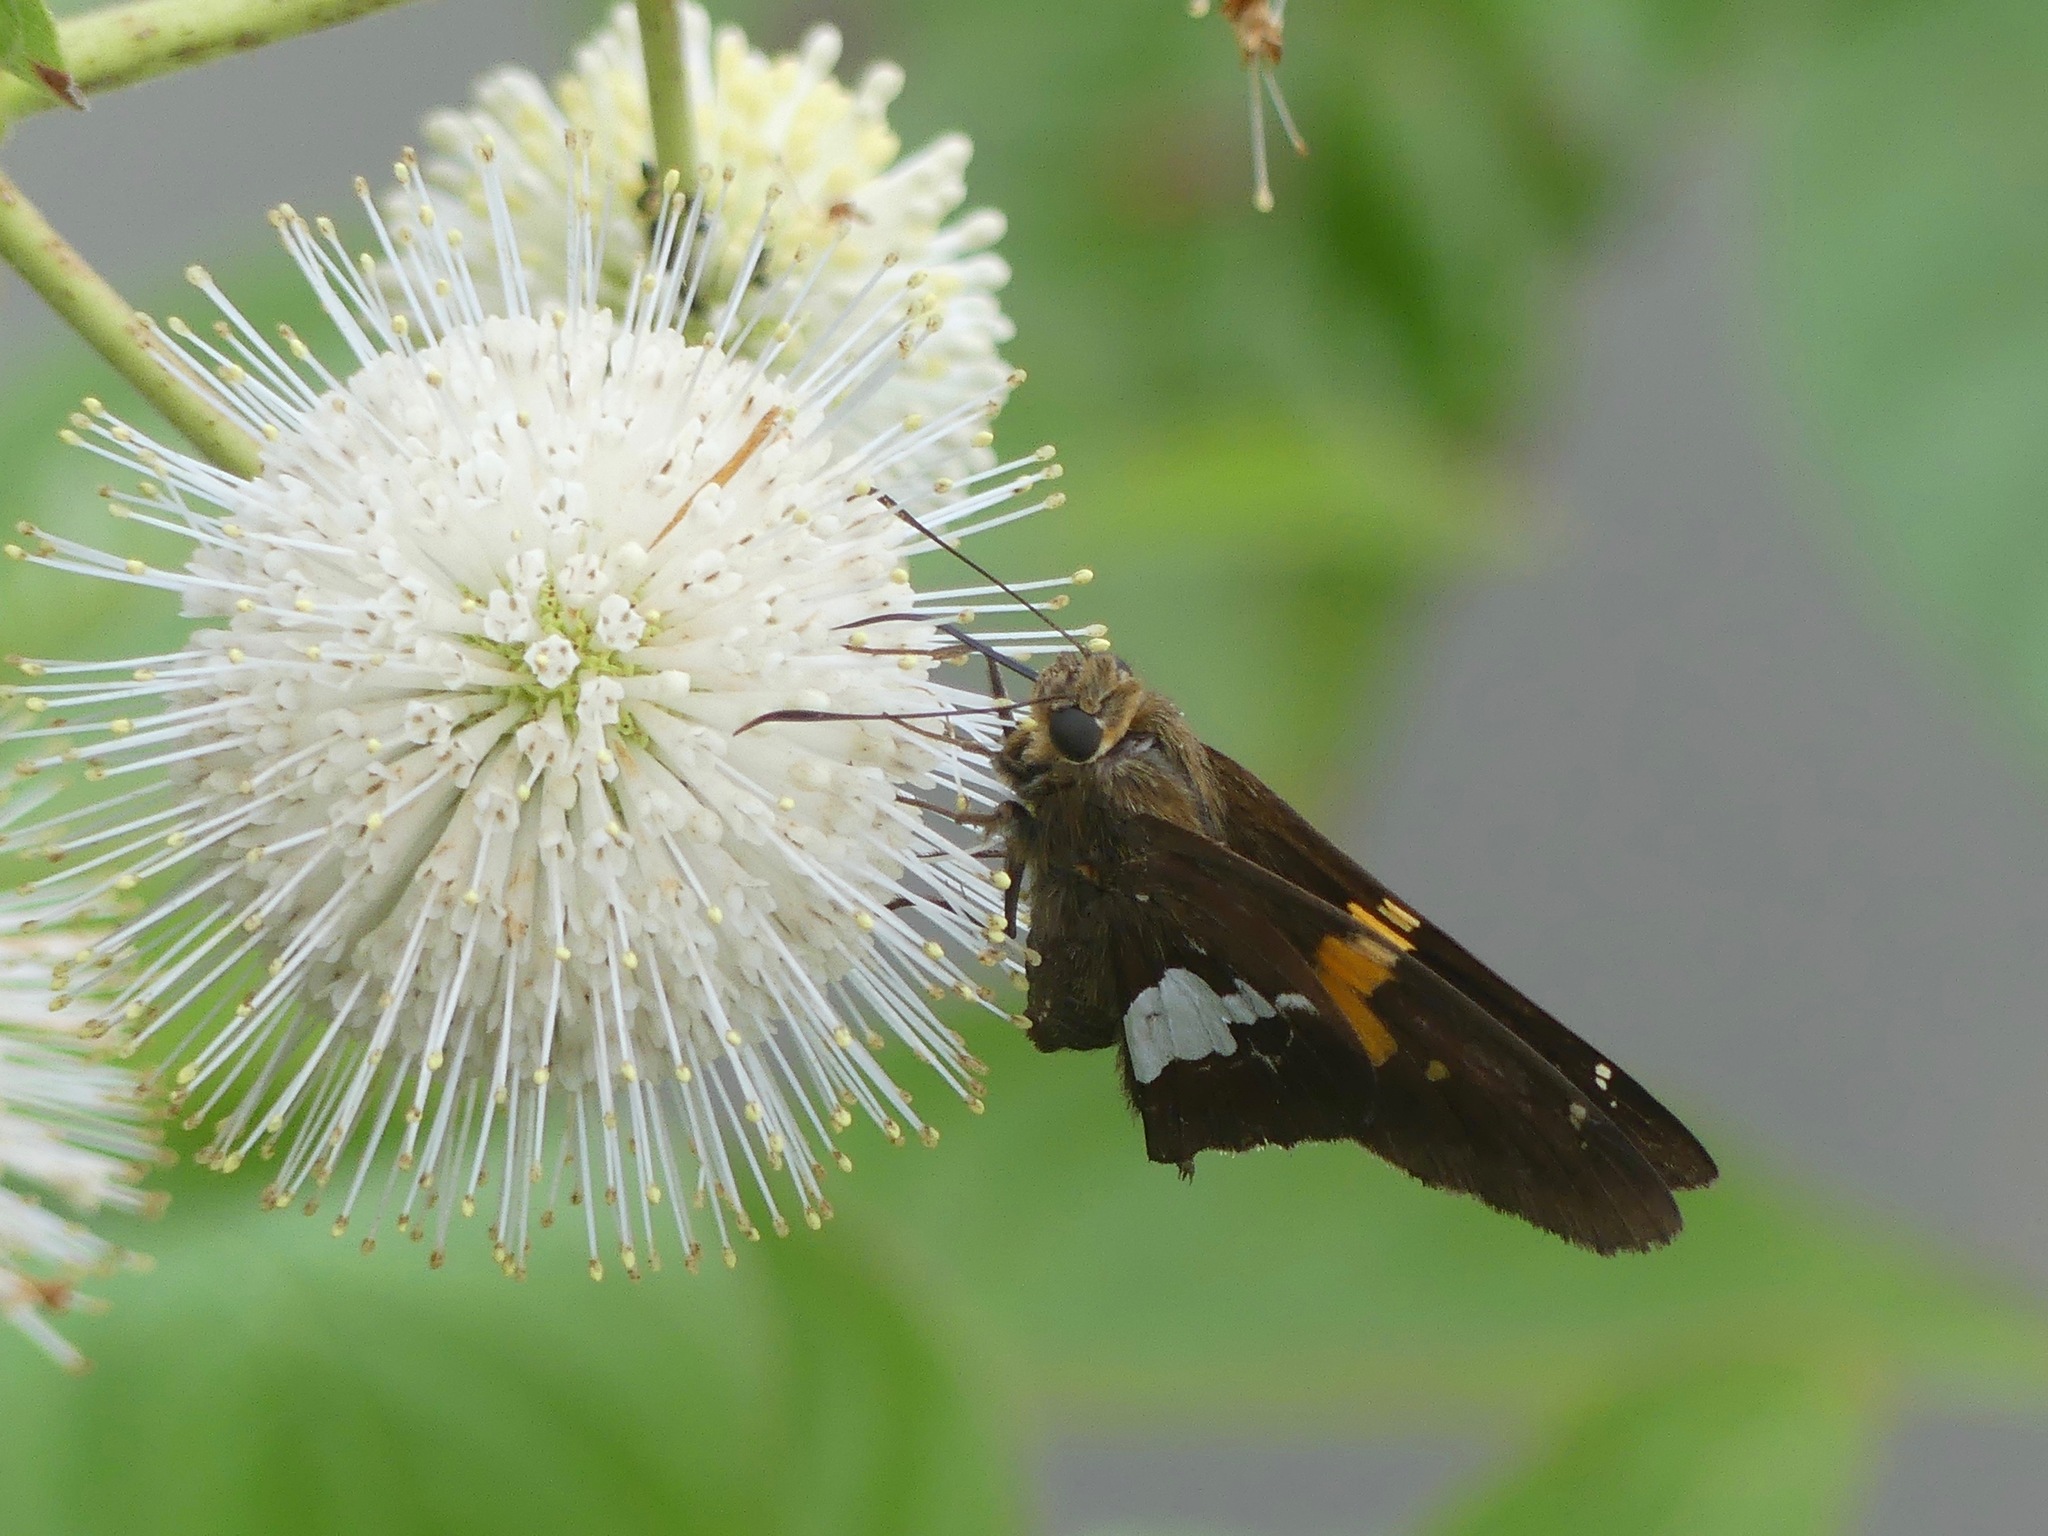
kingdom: Plantae
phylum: Tracheophyta
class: Magnoliopsida
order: Gentianales
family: Rubiaceae
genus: Cephalanthus
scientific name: Cephalanthus occidentalis
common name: Button-willow
